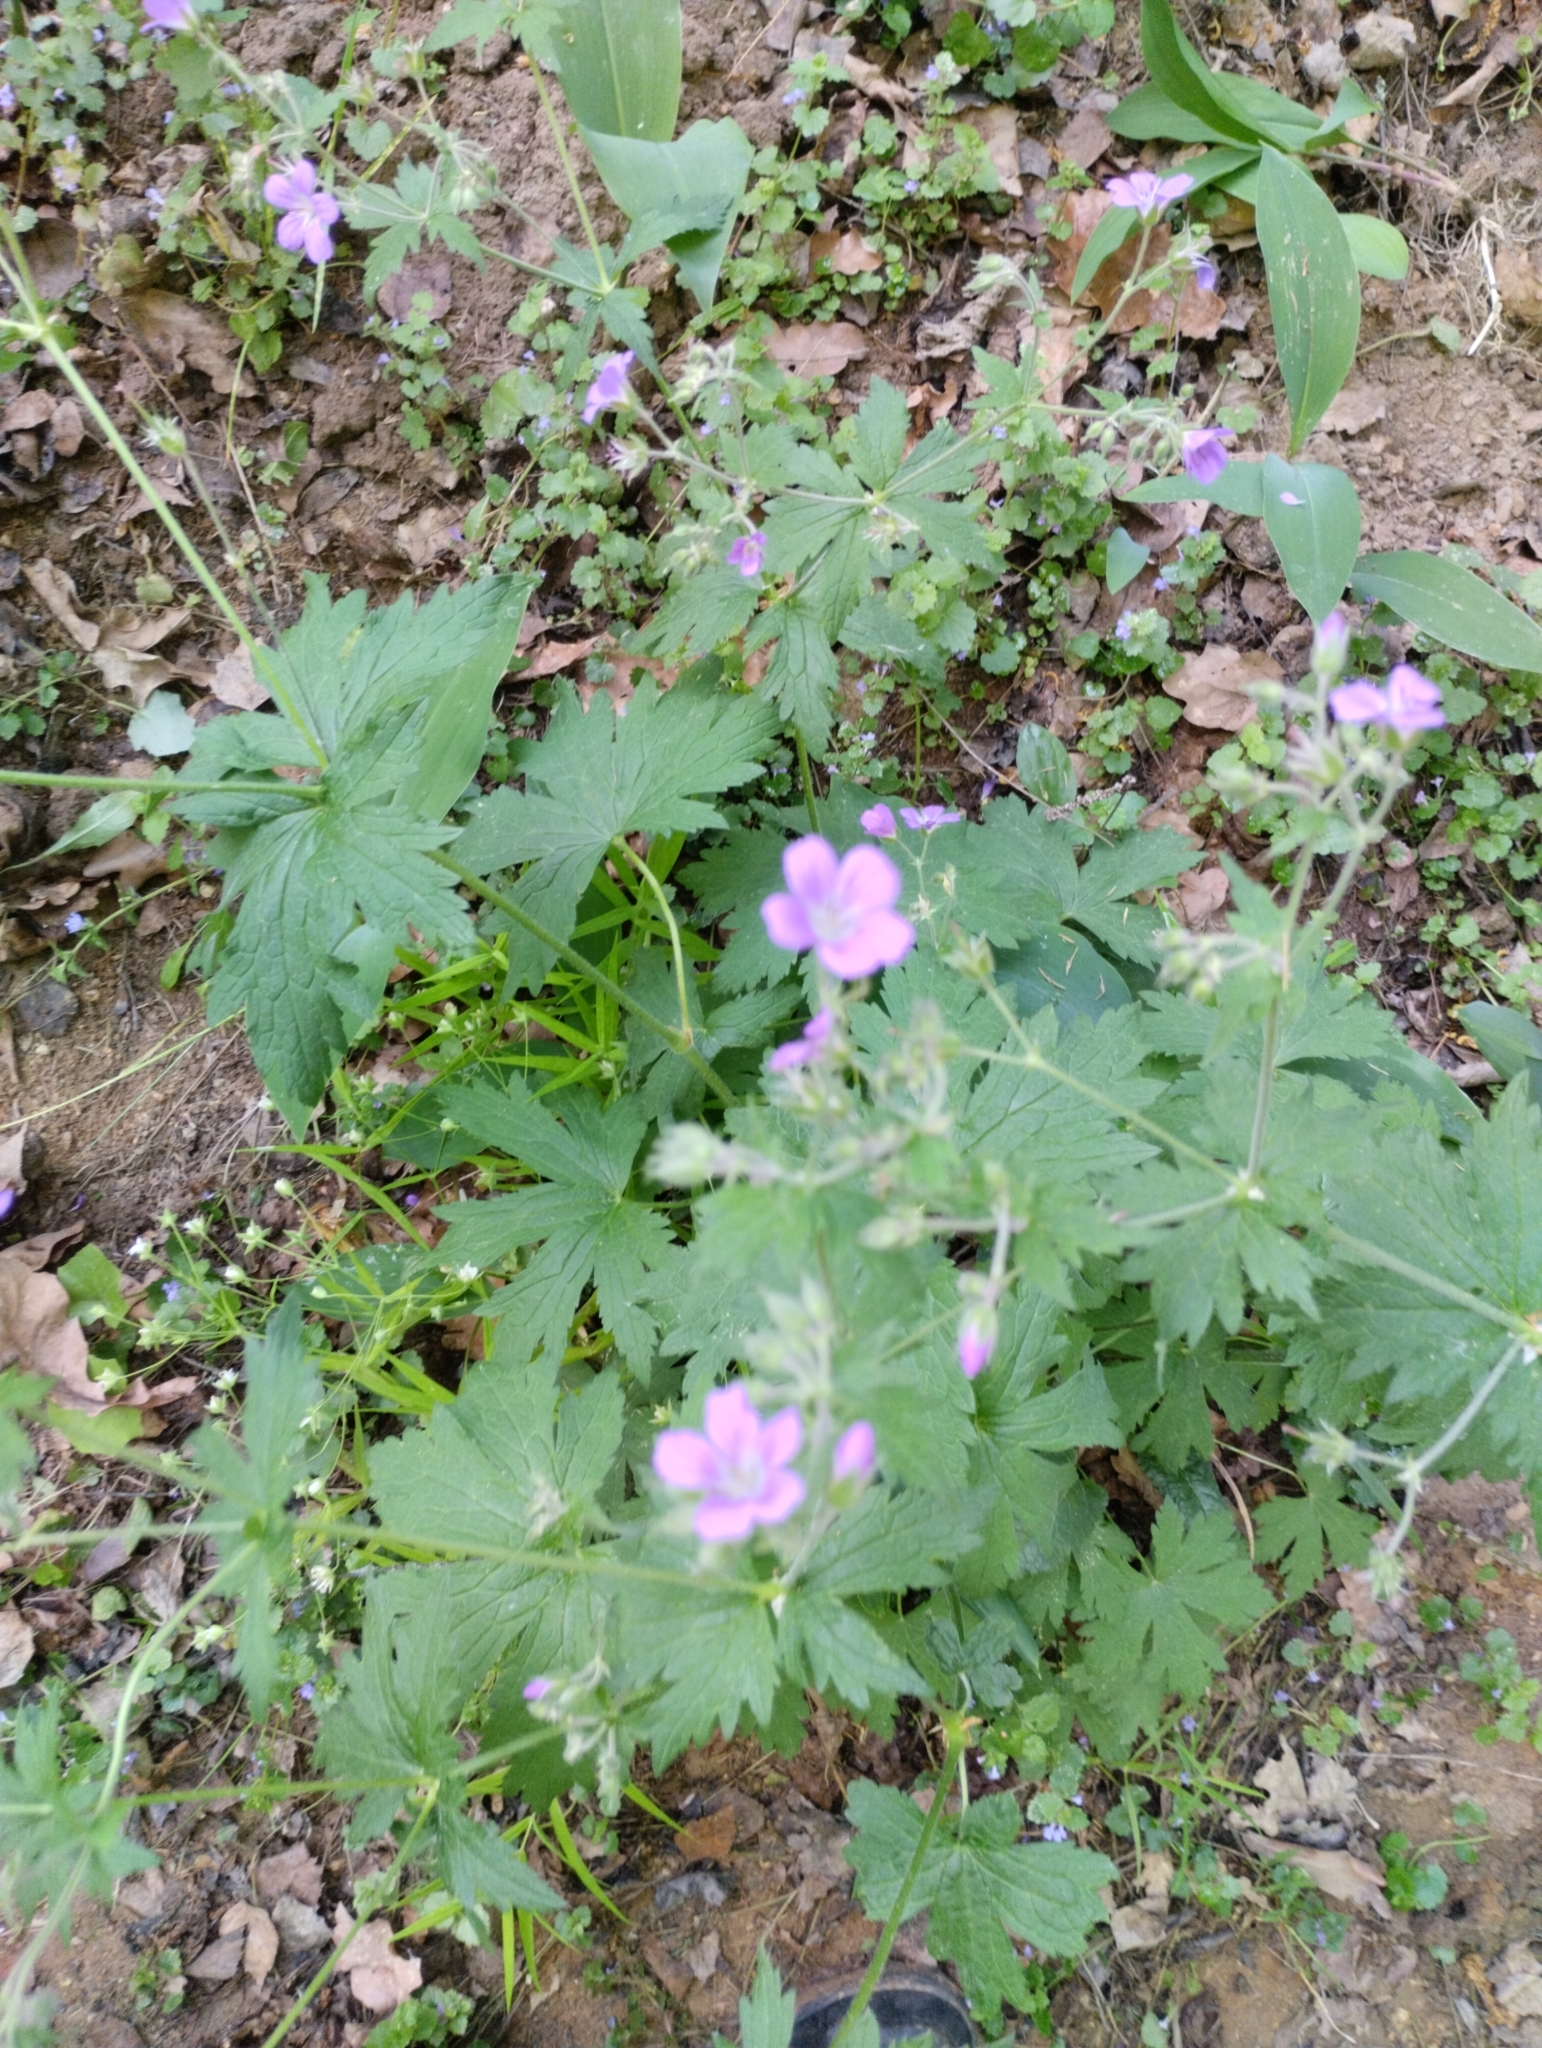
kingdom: Plantae
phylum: Tracheophyta
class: Magnoliopsida
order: Geraniales
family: Geraniaceae
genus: Geranium
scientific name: Geranium sylvaticum
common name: Wood crane's-bill
